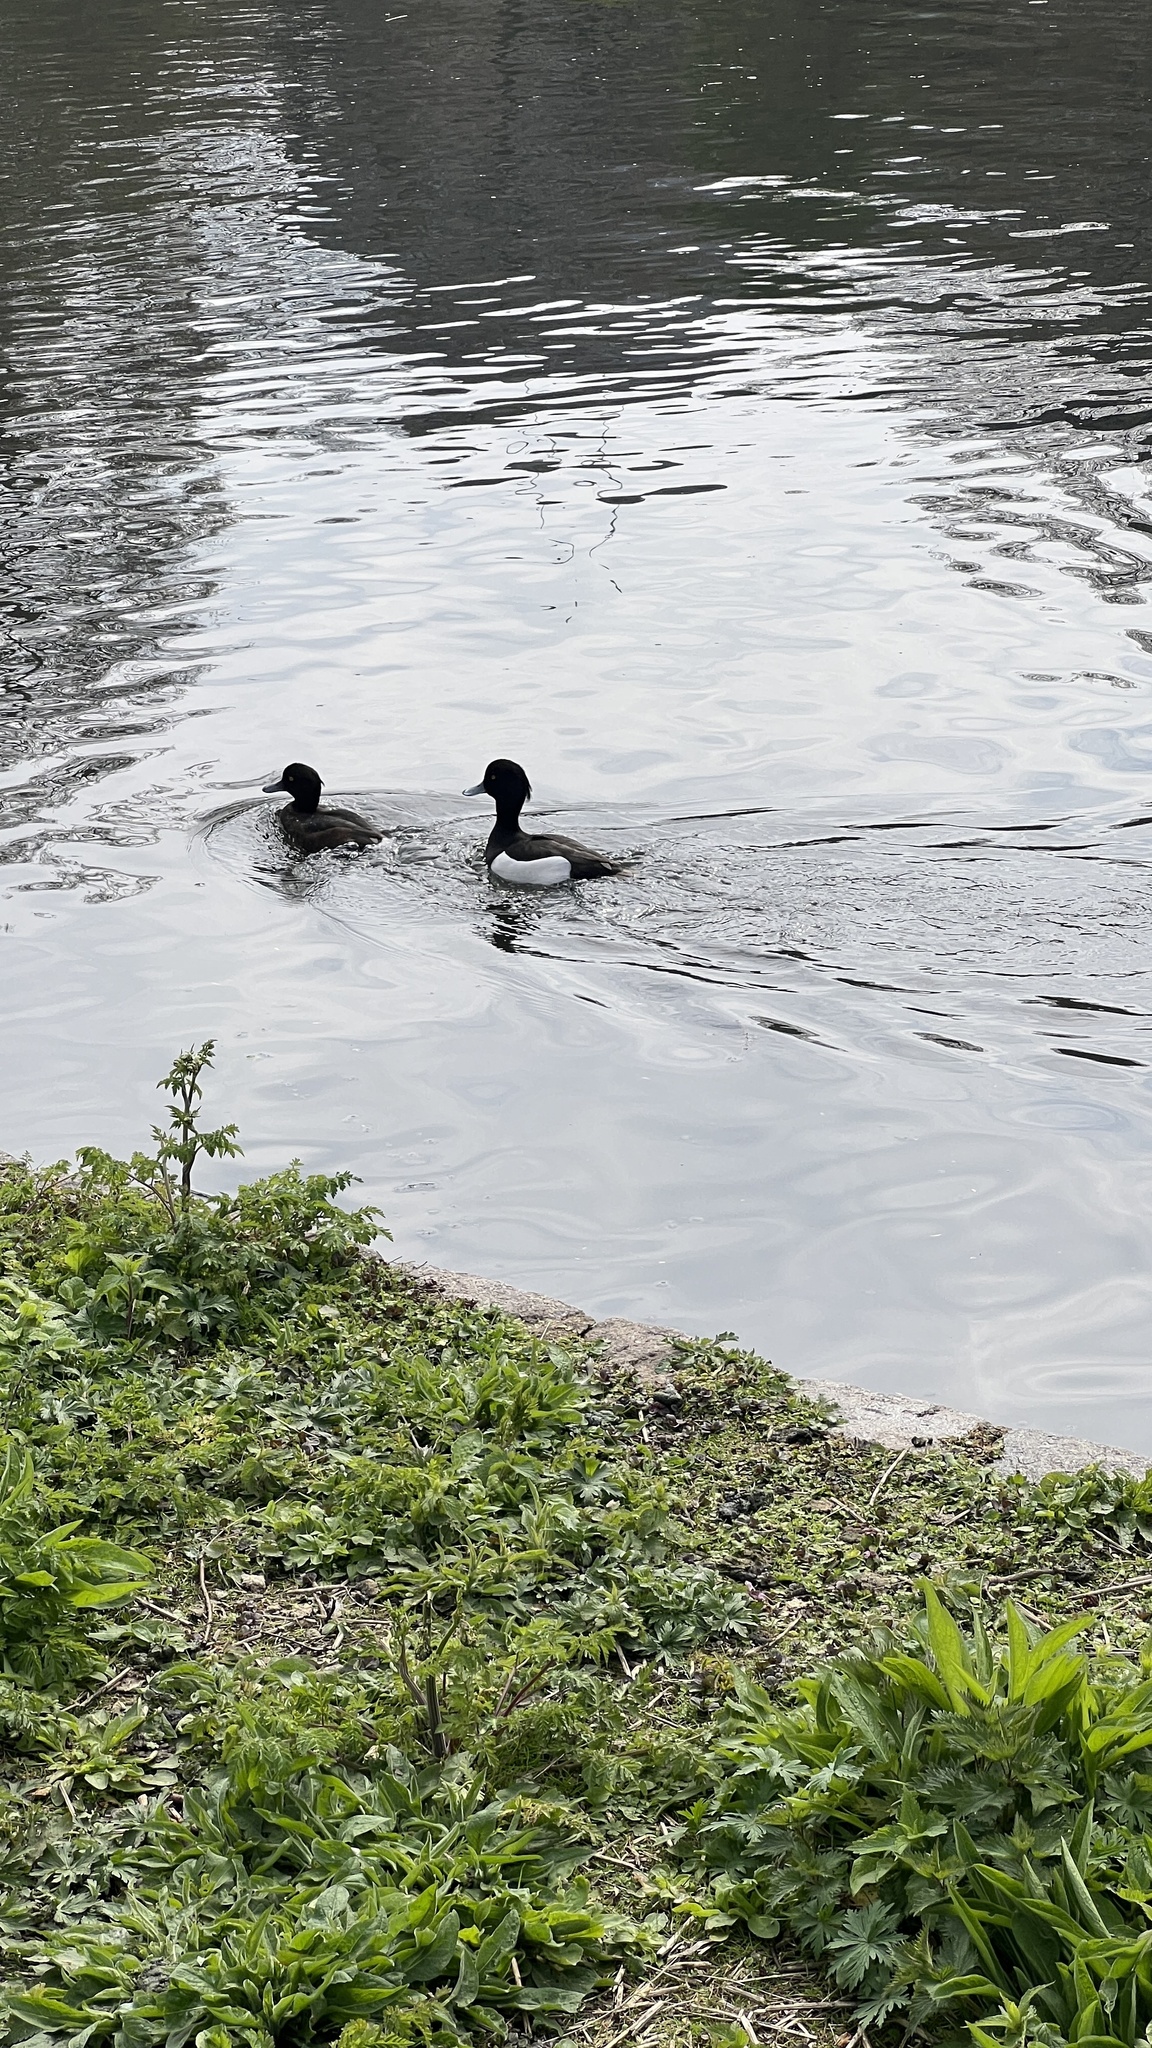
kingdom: Animalia
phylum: Chordata
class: Aves
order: Anseriformes
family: Anatidae
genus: Aythya
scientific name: Aythya fuligula
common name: Tufted duck
